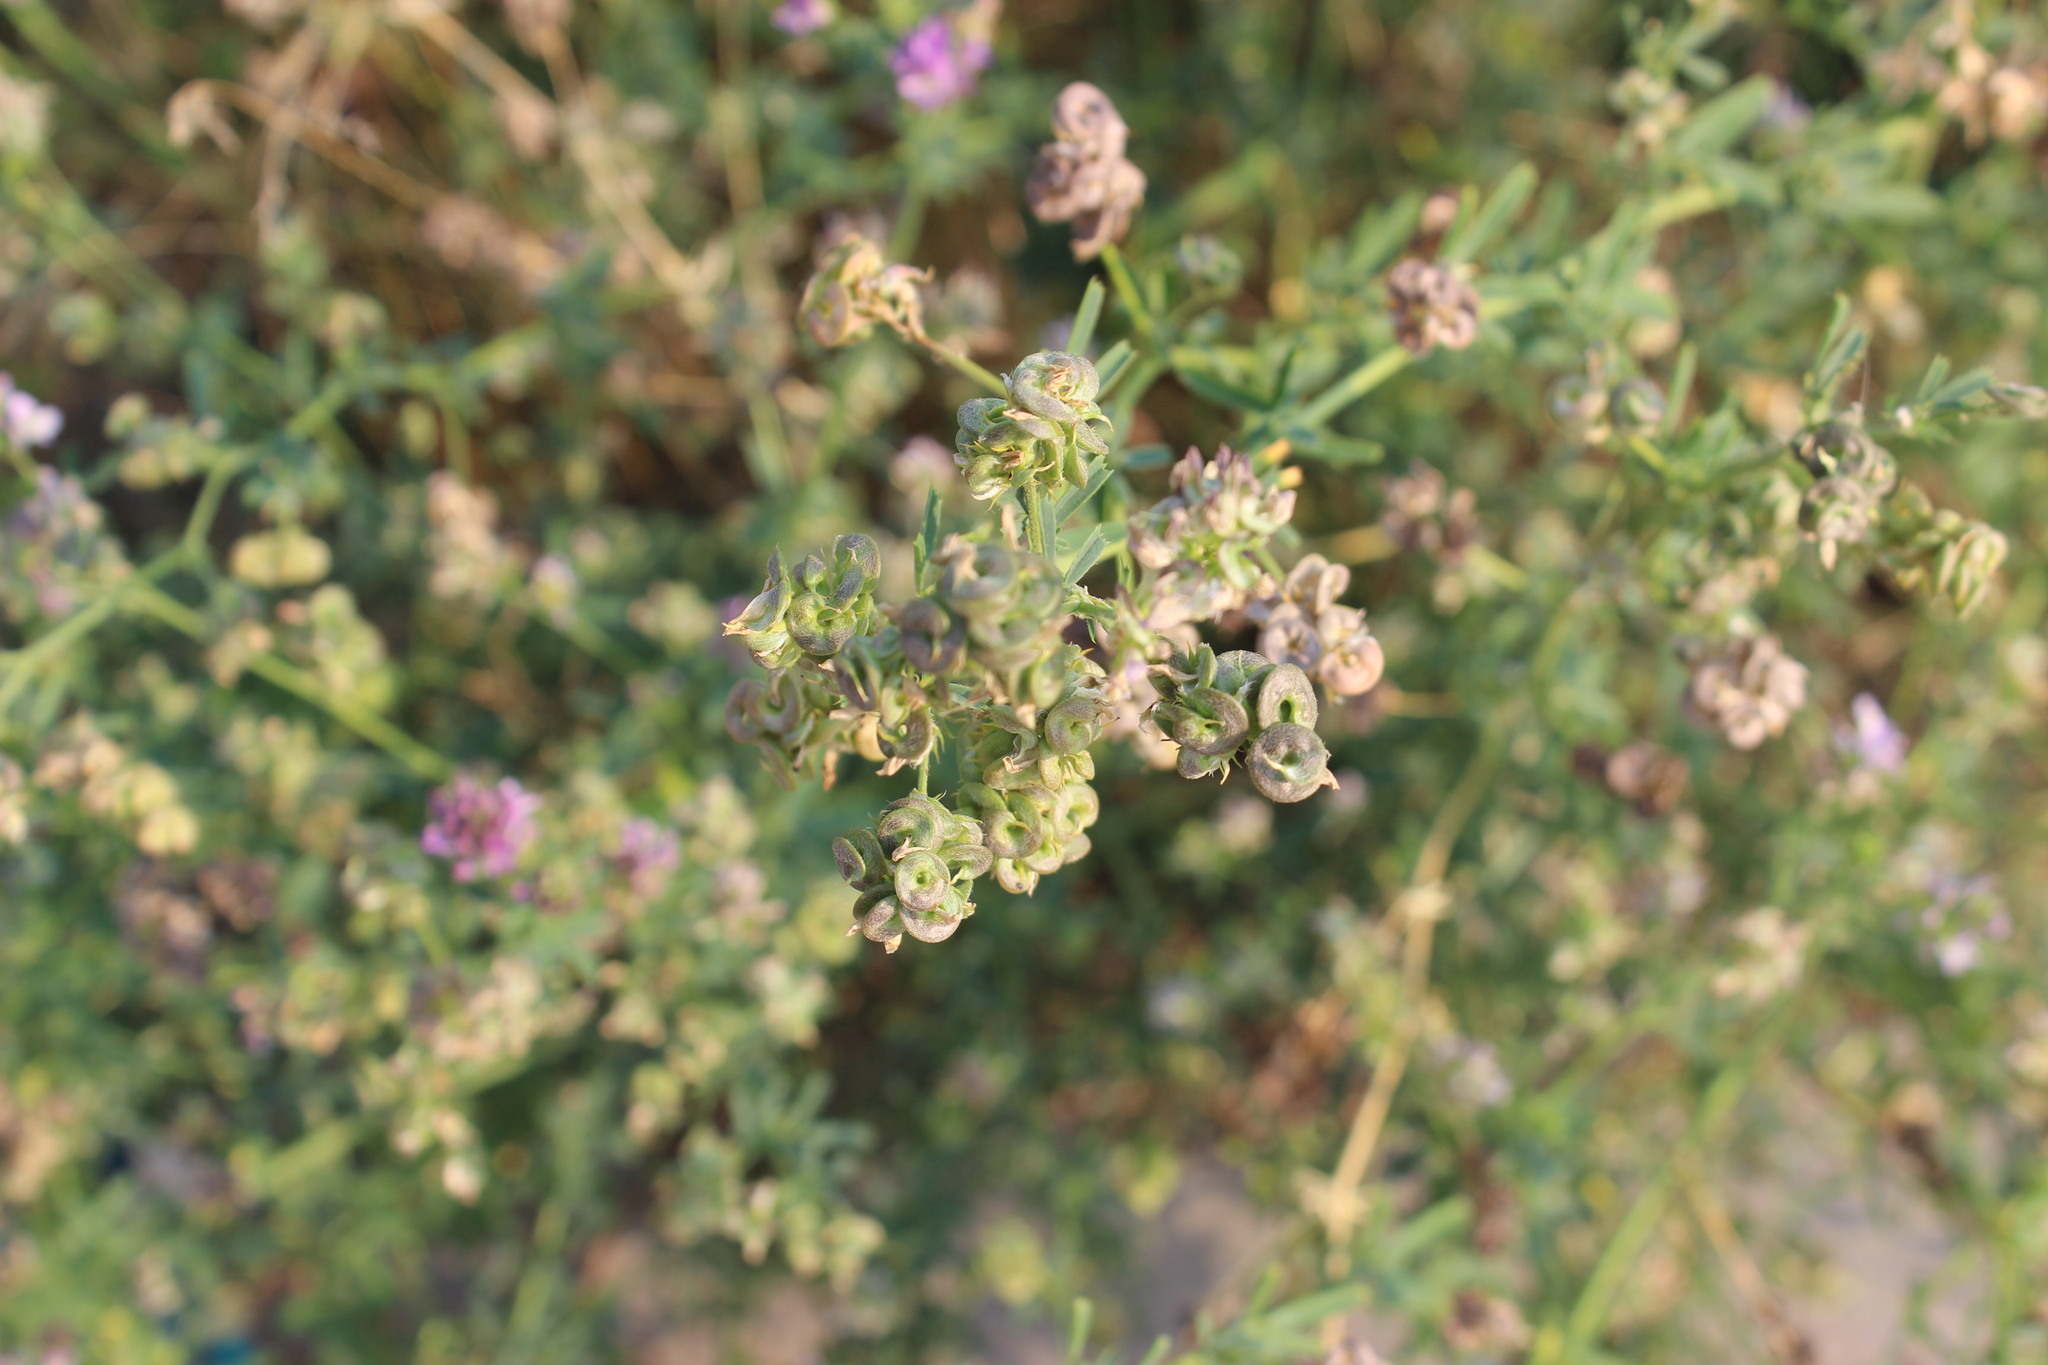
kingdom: Plantae
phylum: Tracheophyta
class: Magnoliopsida
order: Fabales
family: Fabaceae
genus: Medicago
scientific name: Medicago varia
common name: Sand lucerne
